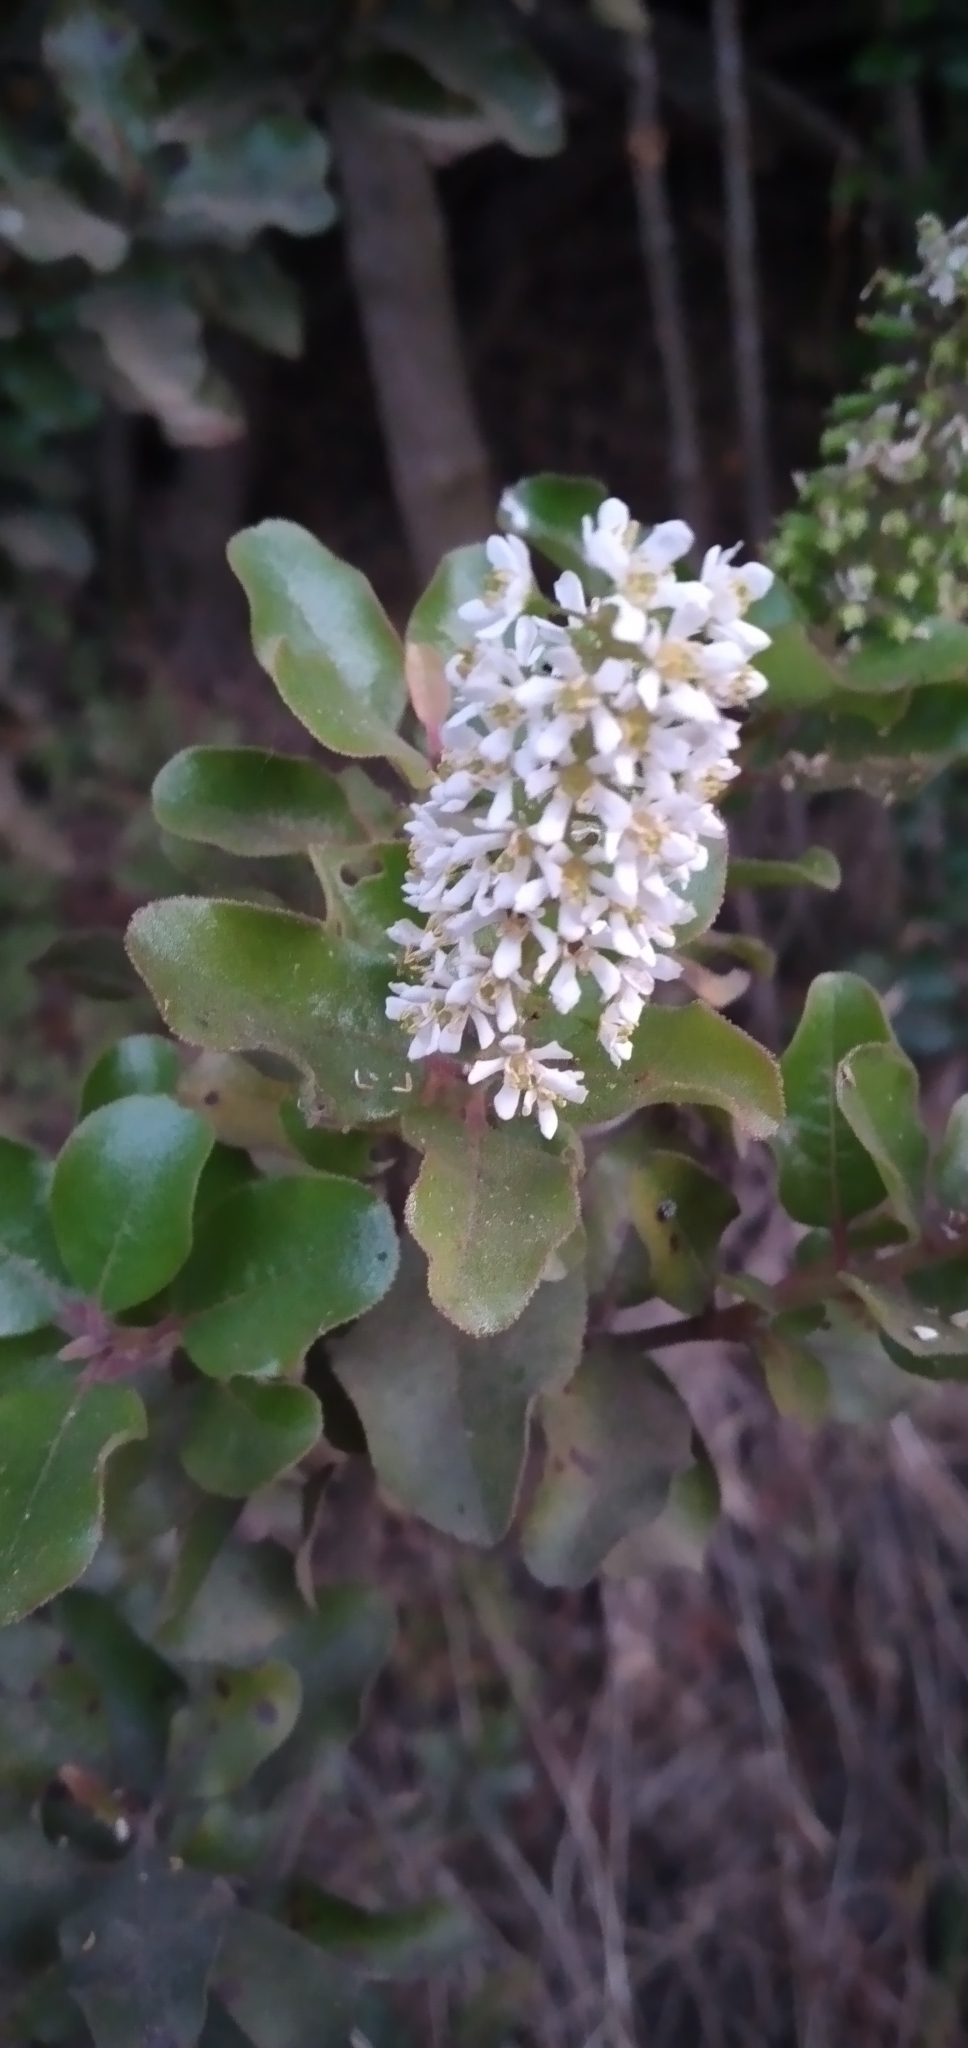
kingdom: Plantae
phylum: Tracheophyta
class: Magnoliopsida
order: Escalloniales
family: Escalloniaceae
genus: Escallonia
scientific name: Escallonia pulverulenta
